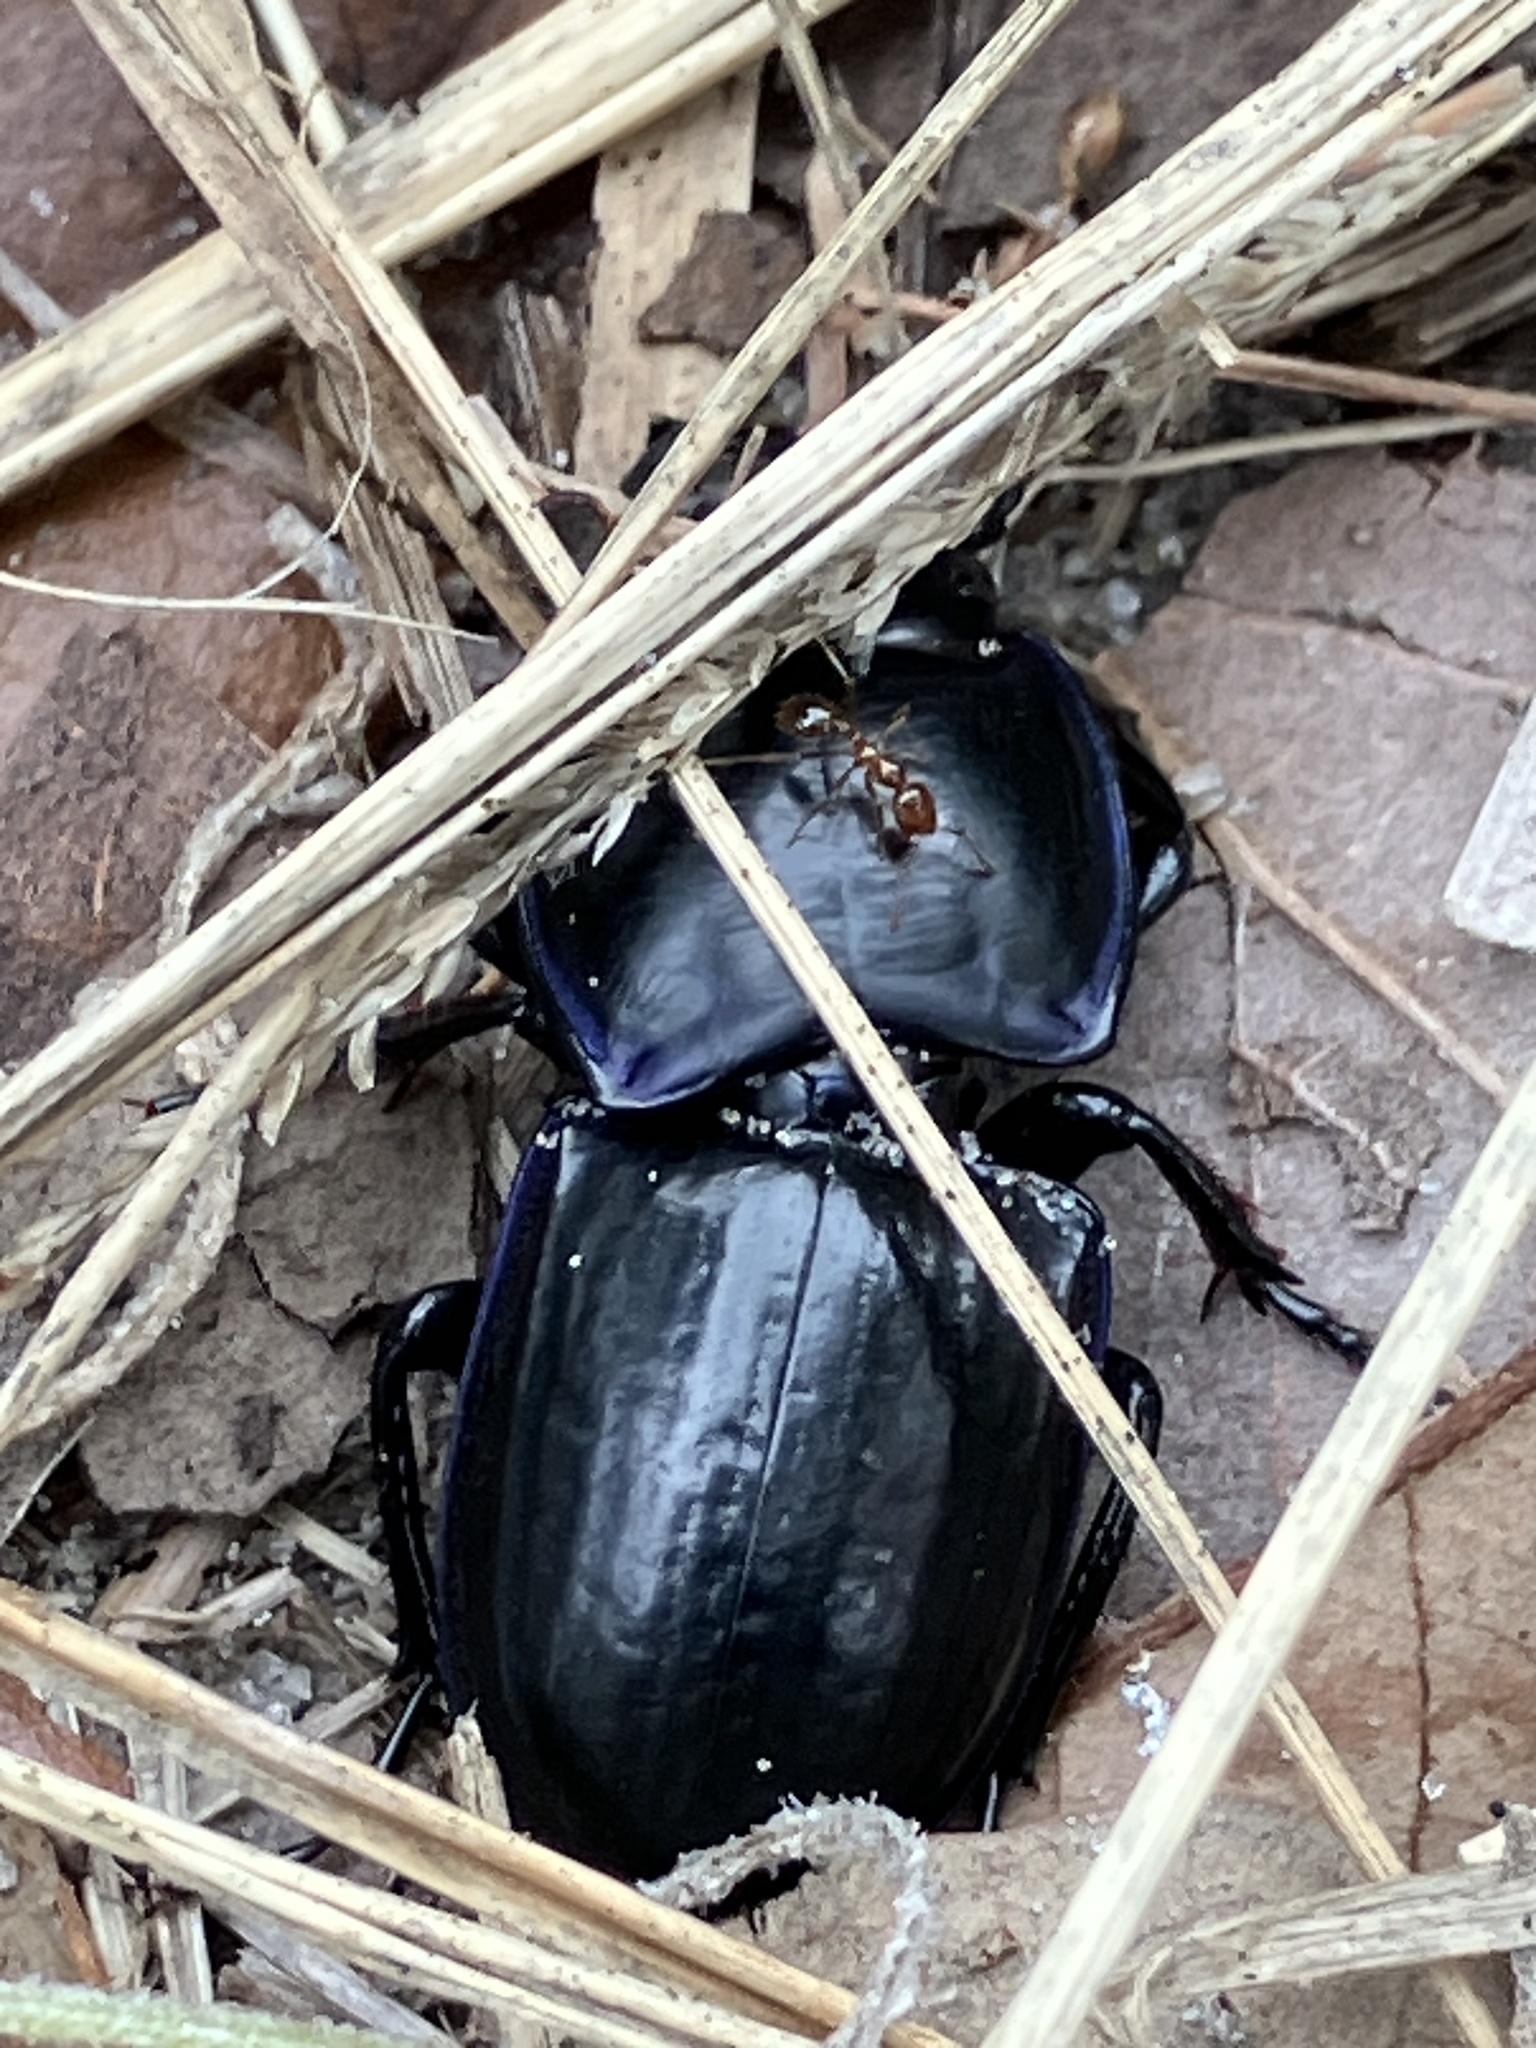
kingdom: Animalia
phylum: Arthropoda
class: Insecta
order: Coleoptera
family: Carabidae
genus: Pasimachus
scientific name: Pasimachus sublaevis
